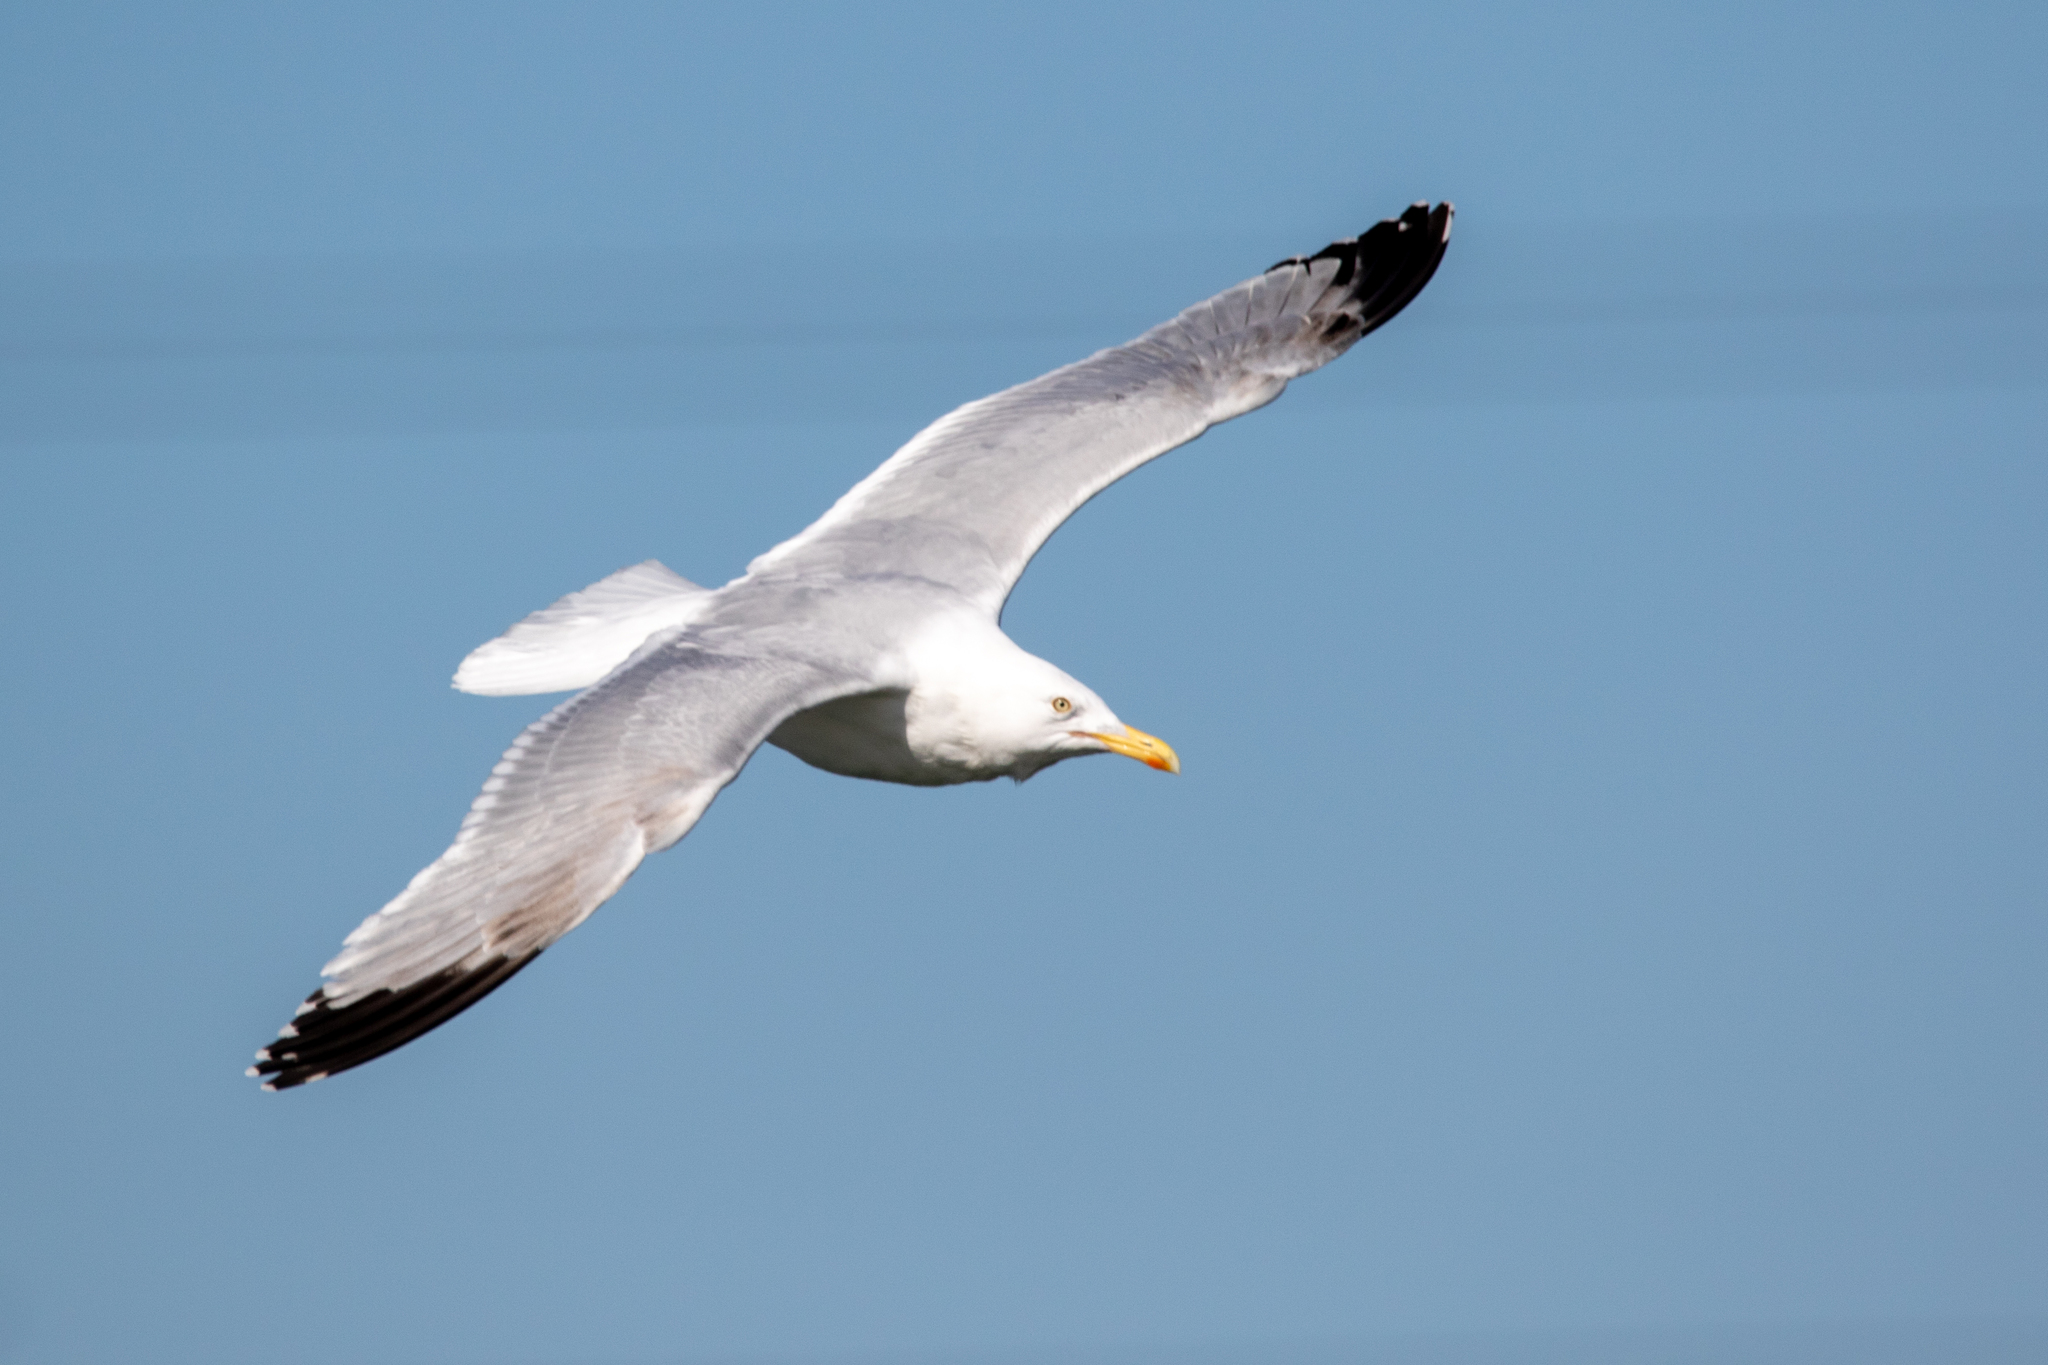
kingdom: Animalia
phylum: Chordata
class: Aves
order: Charadriiformes
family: Laridae
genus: Larus
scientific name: Larus argentatus
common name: Herring gull
